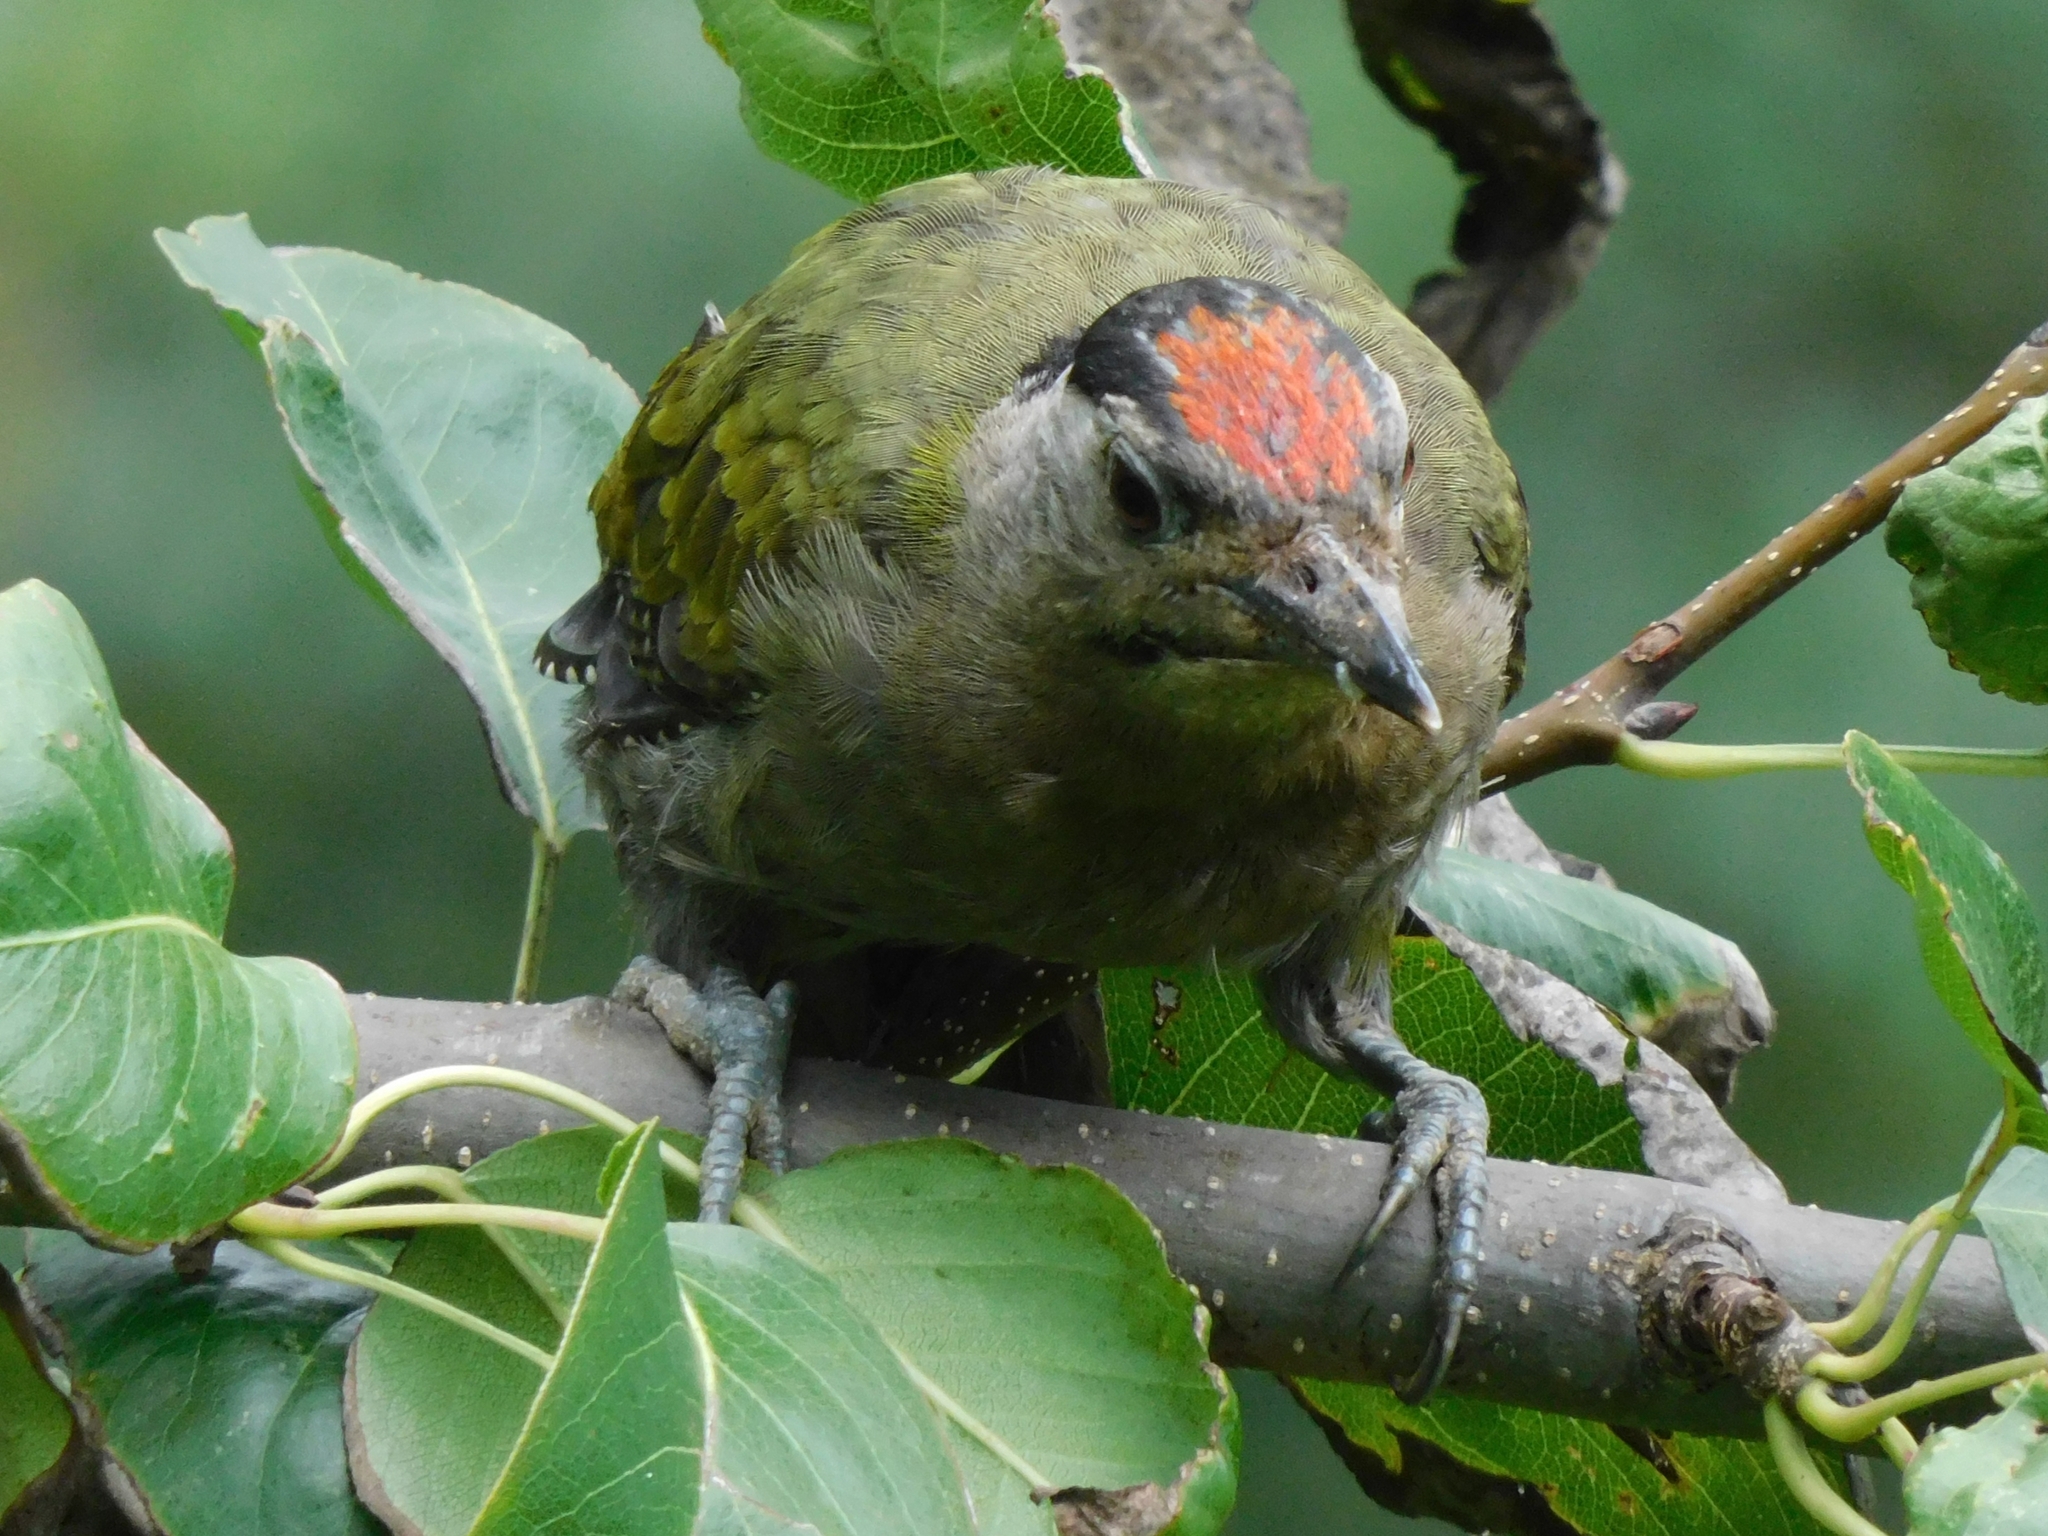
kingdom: Animalia
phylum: Chordata
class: Aves
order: Piciformes
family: Picidae
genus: Picus
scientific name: Picus canus
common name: Grey-headed woodpecker
